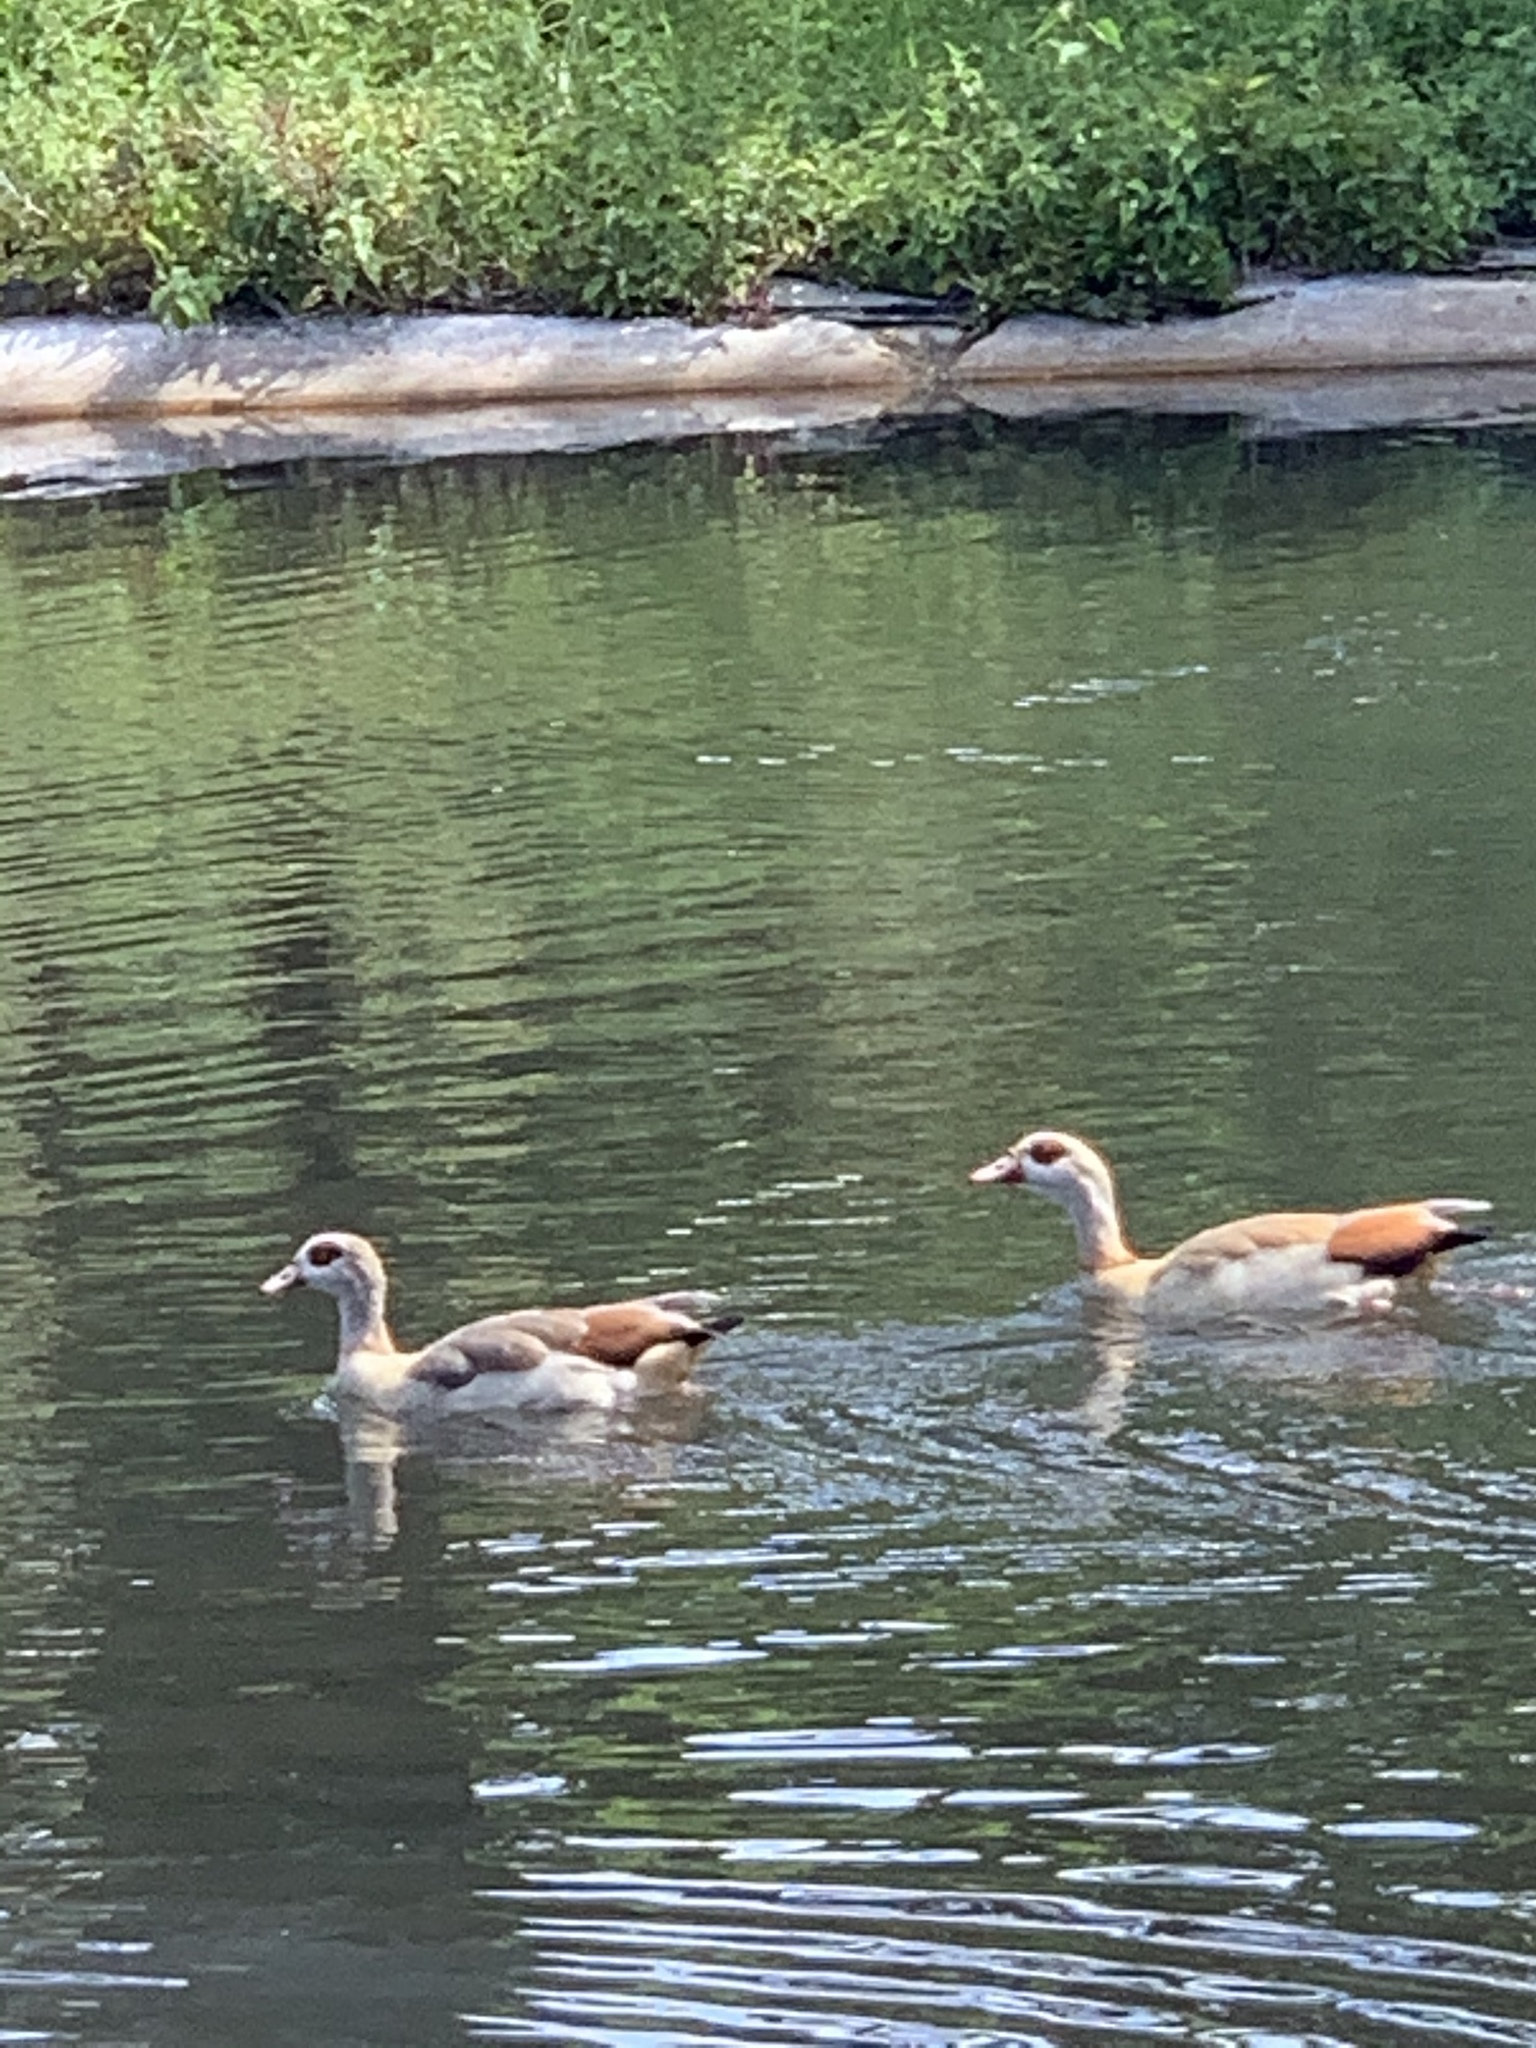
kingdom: Animalia
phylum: Chordata
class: Aves
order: Anseriformes
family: Anatidae
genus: Alopochen
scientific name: Alopochen aegyptiaca
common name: Egyptian goose
